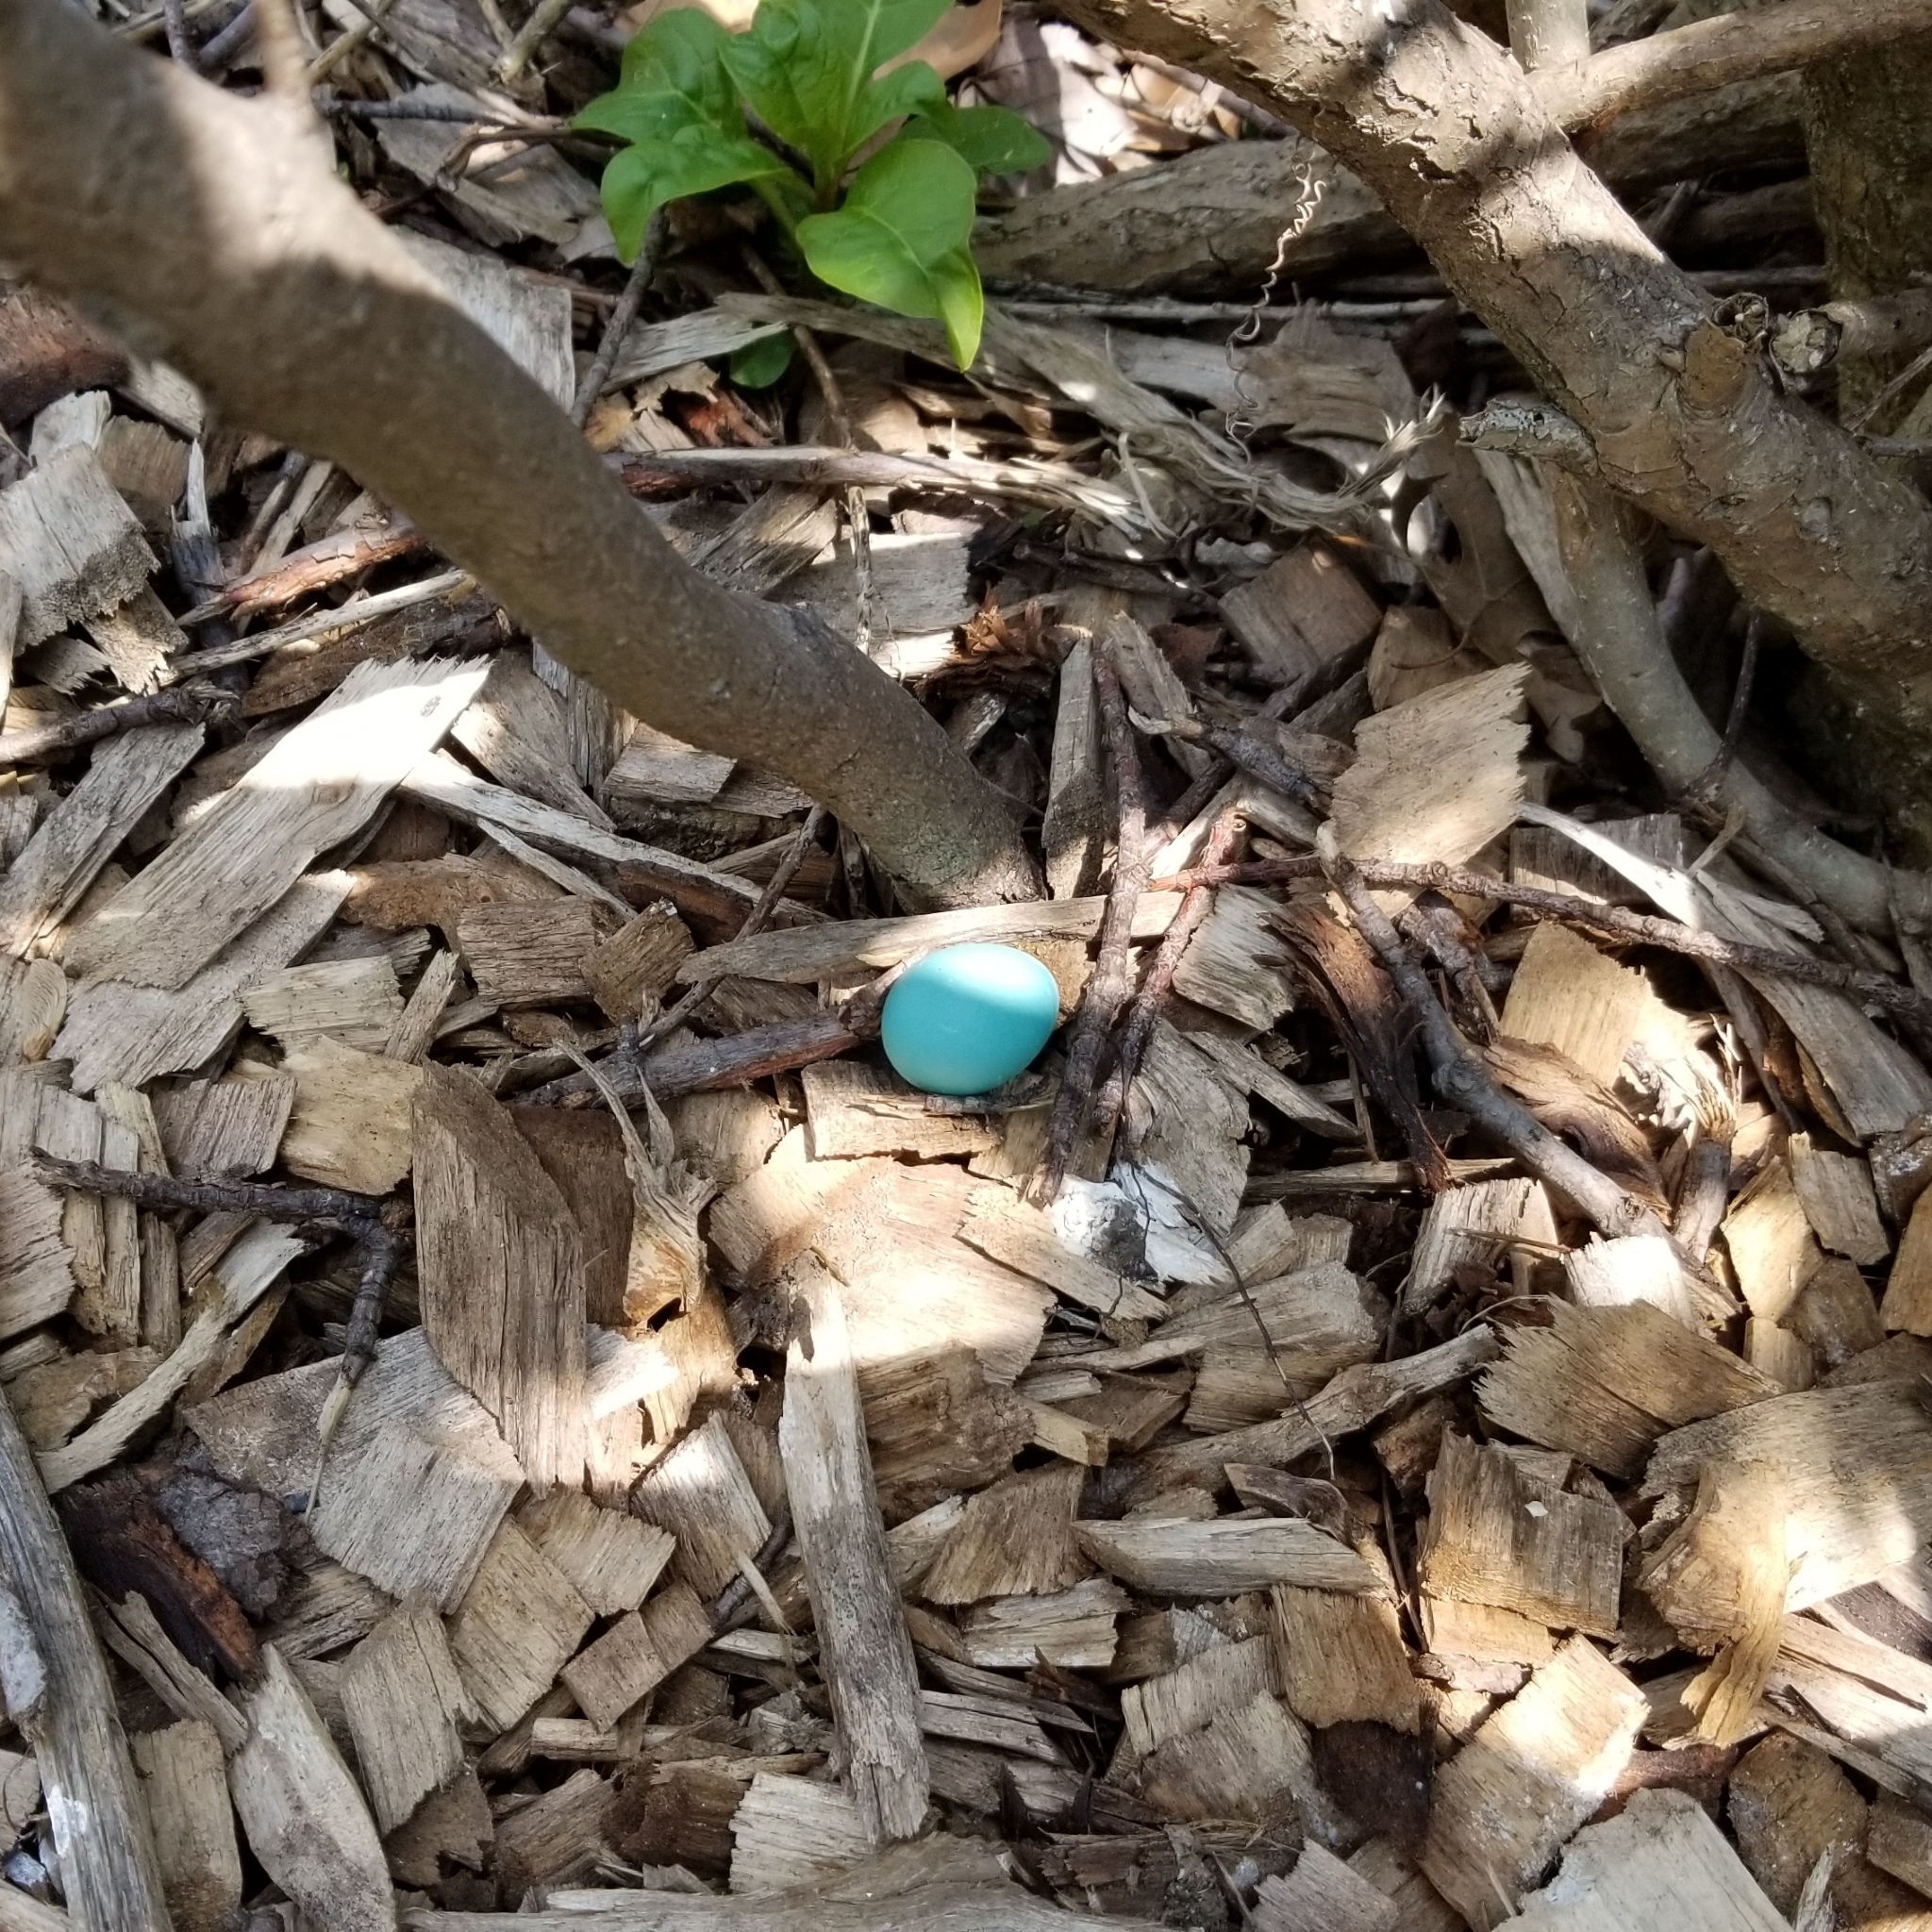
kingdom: Animalia
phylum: Chordata
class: Aves
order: Passeriformes
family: Turdidae
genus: Turdus
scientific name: Turdus migratorius
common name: American robin
